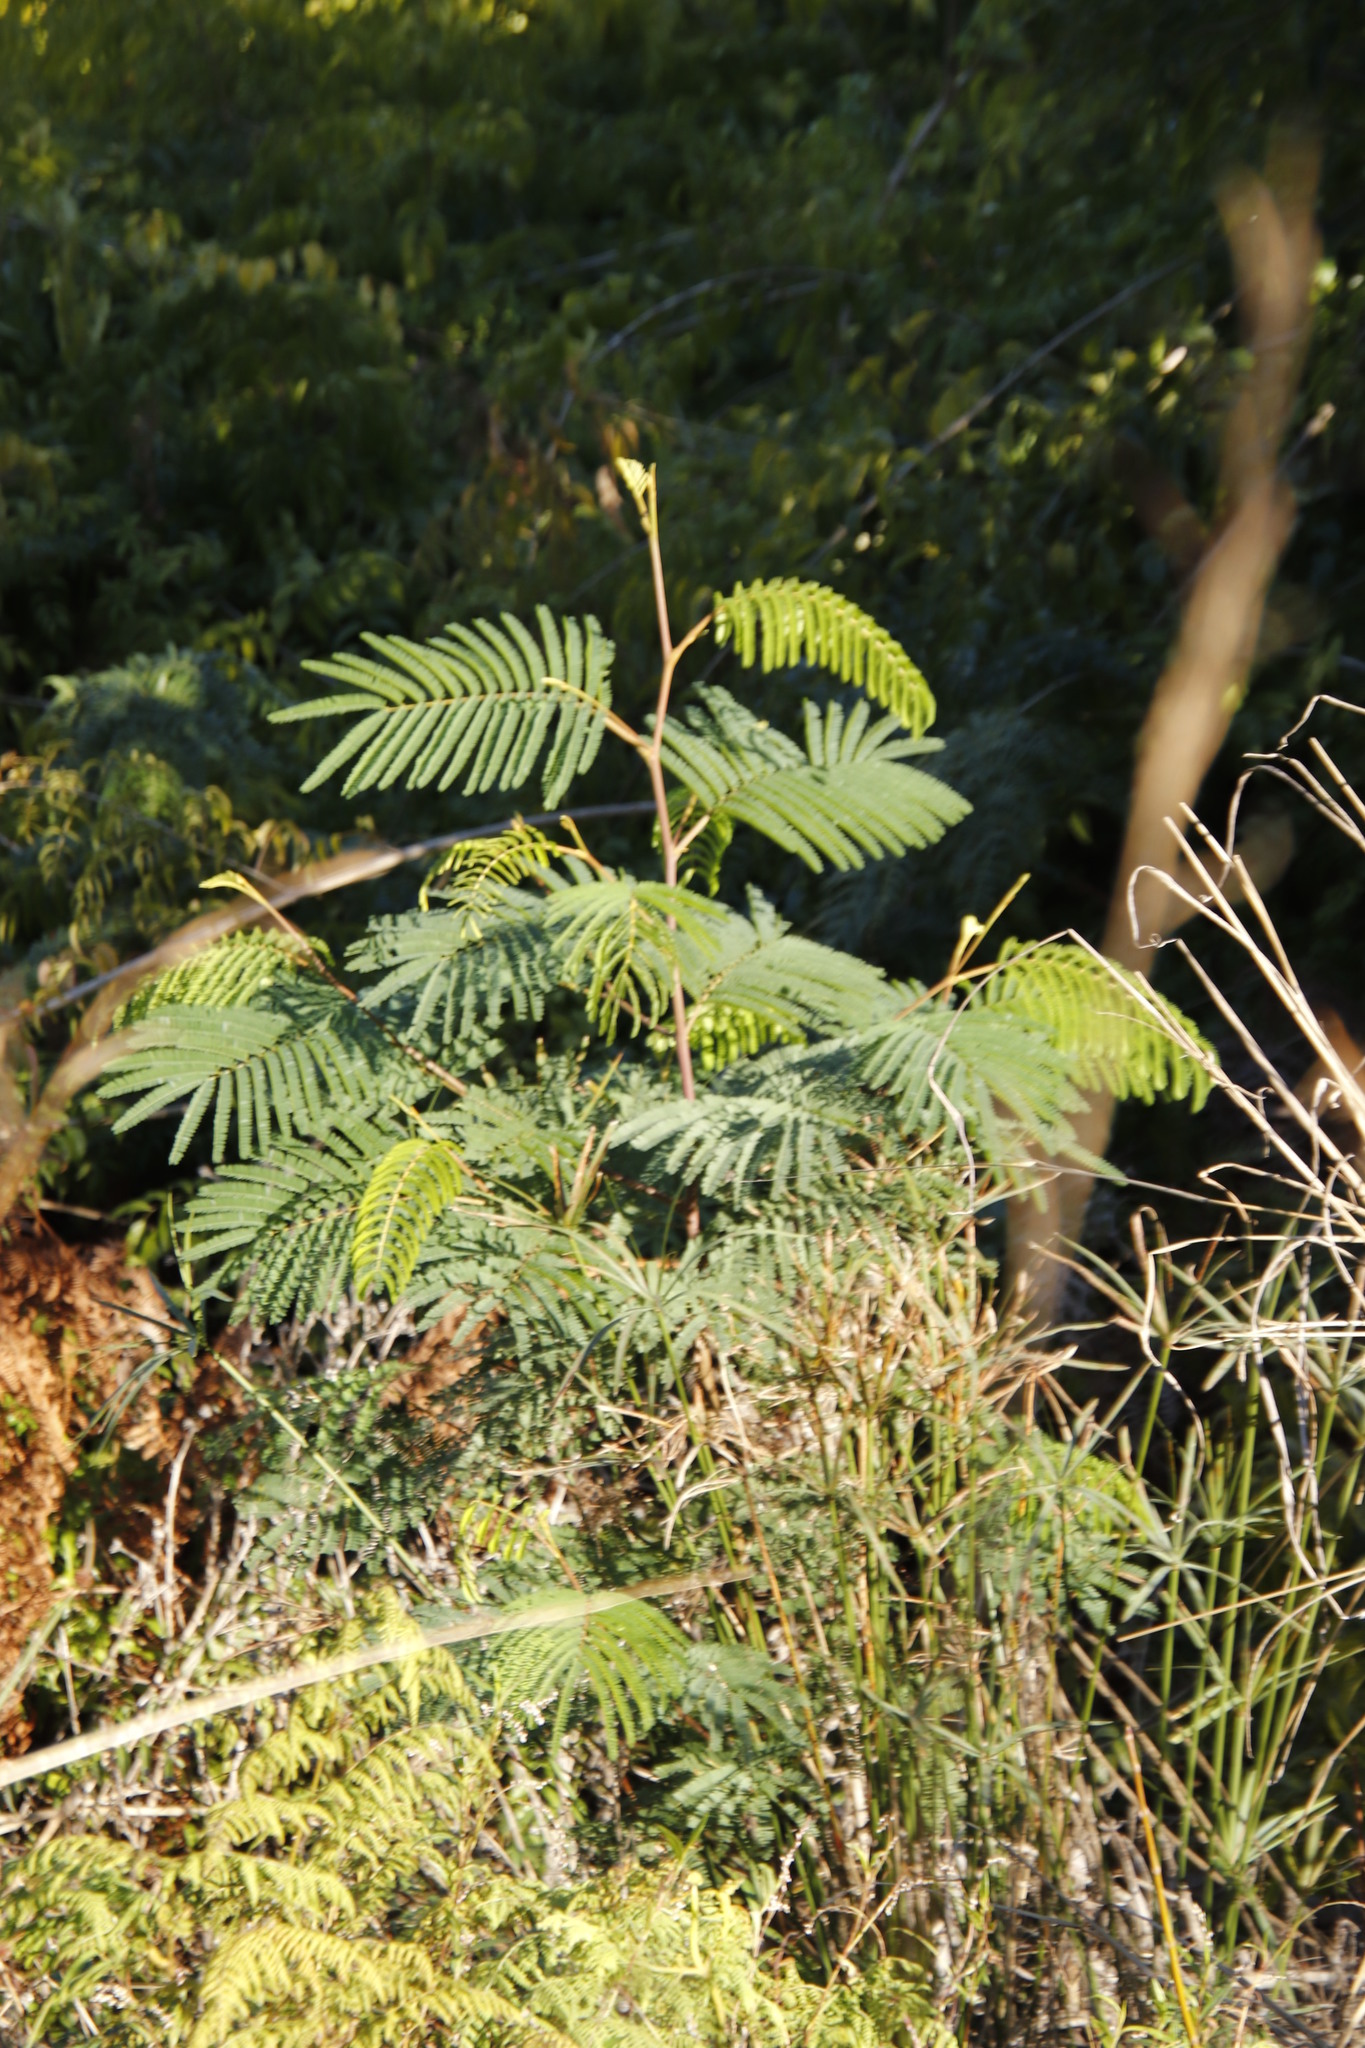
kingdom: Plantae
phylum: Tracheophyta
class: Magnoliopsida
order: Fabales
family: Fabaceae
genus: Paraserianthes
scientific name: Paraserianthes lophantha
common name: Plume albizia
